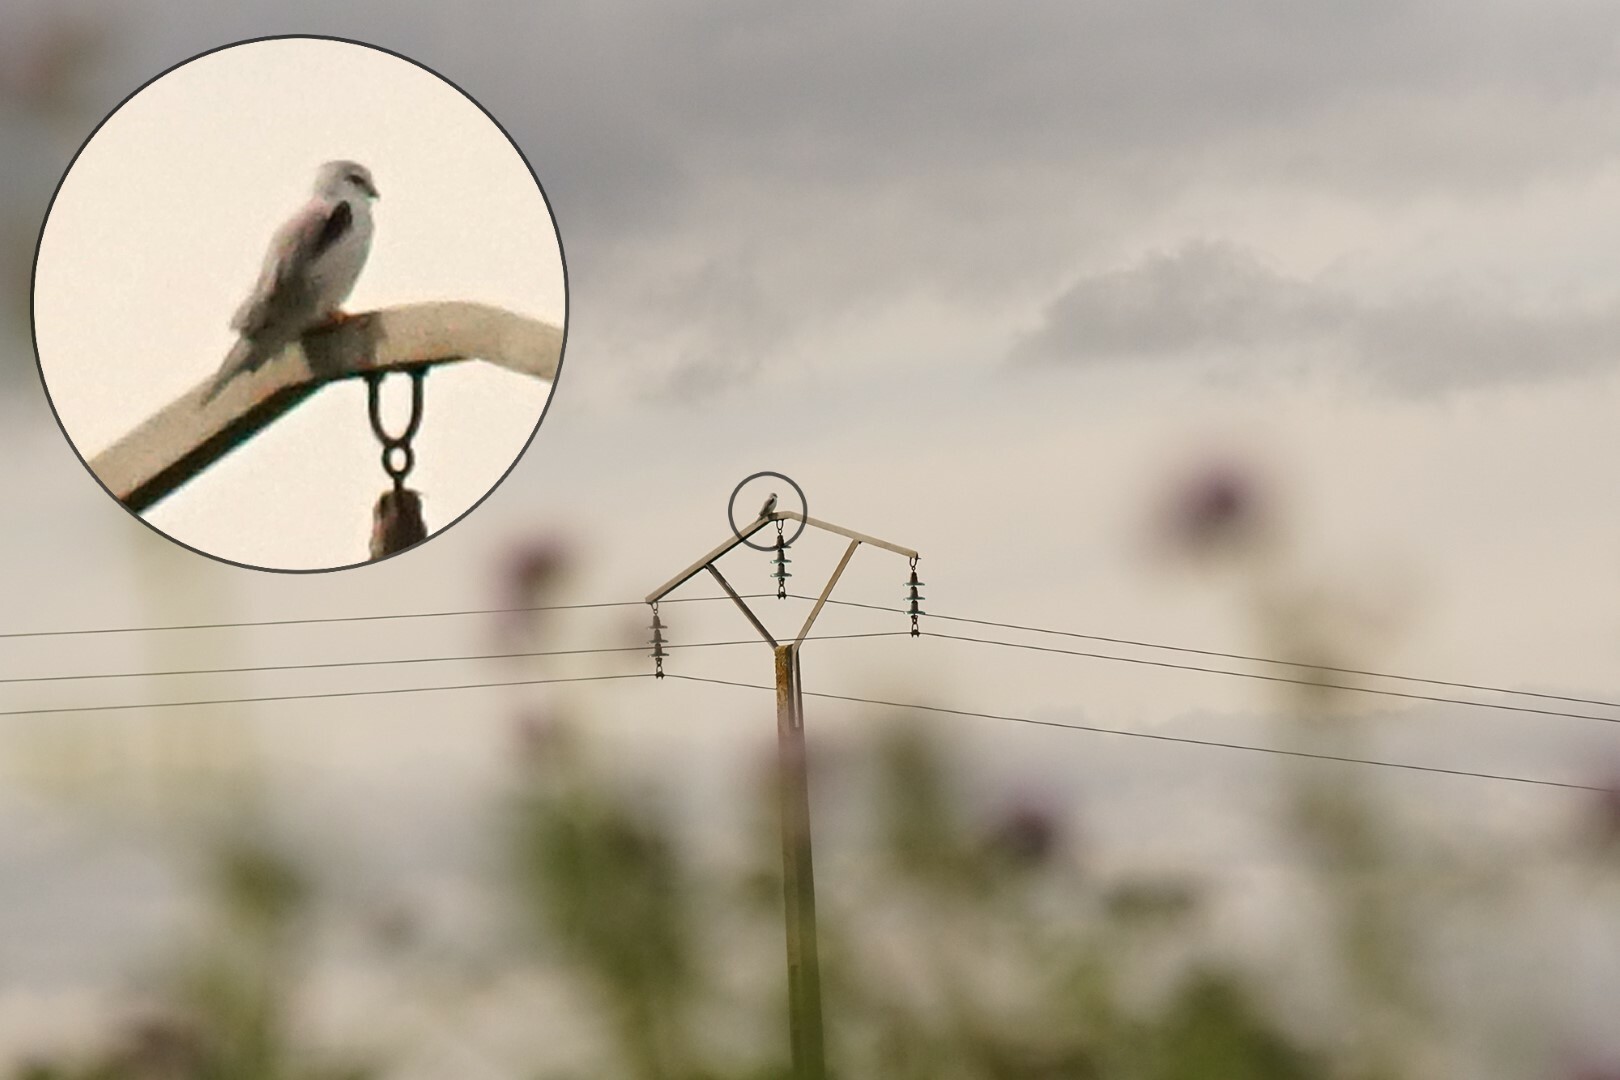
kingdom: Animalia
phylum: Chordata
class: Aves
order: Accipitriformes
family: Accipitridae
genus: Elanus
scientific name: Elanus caeruleus
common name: Black-winged kite
